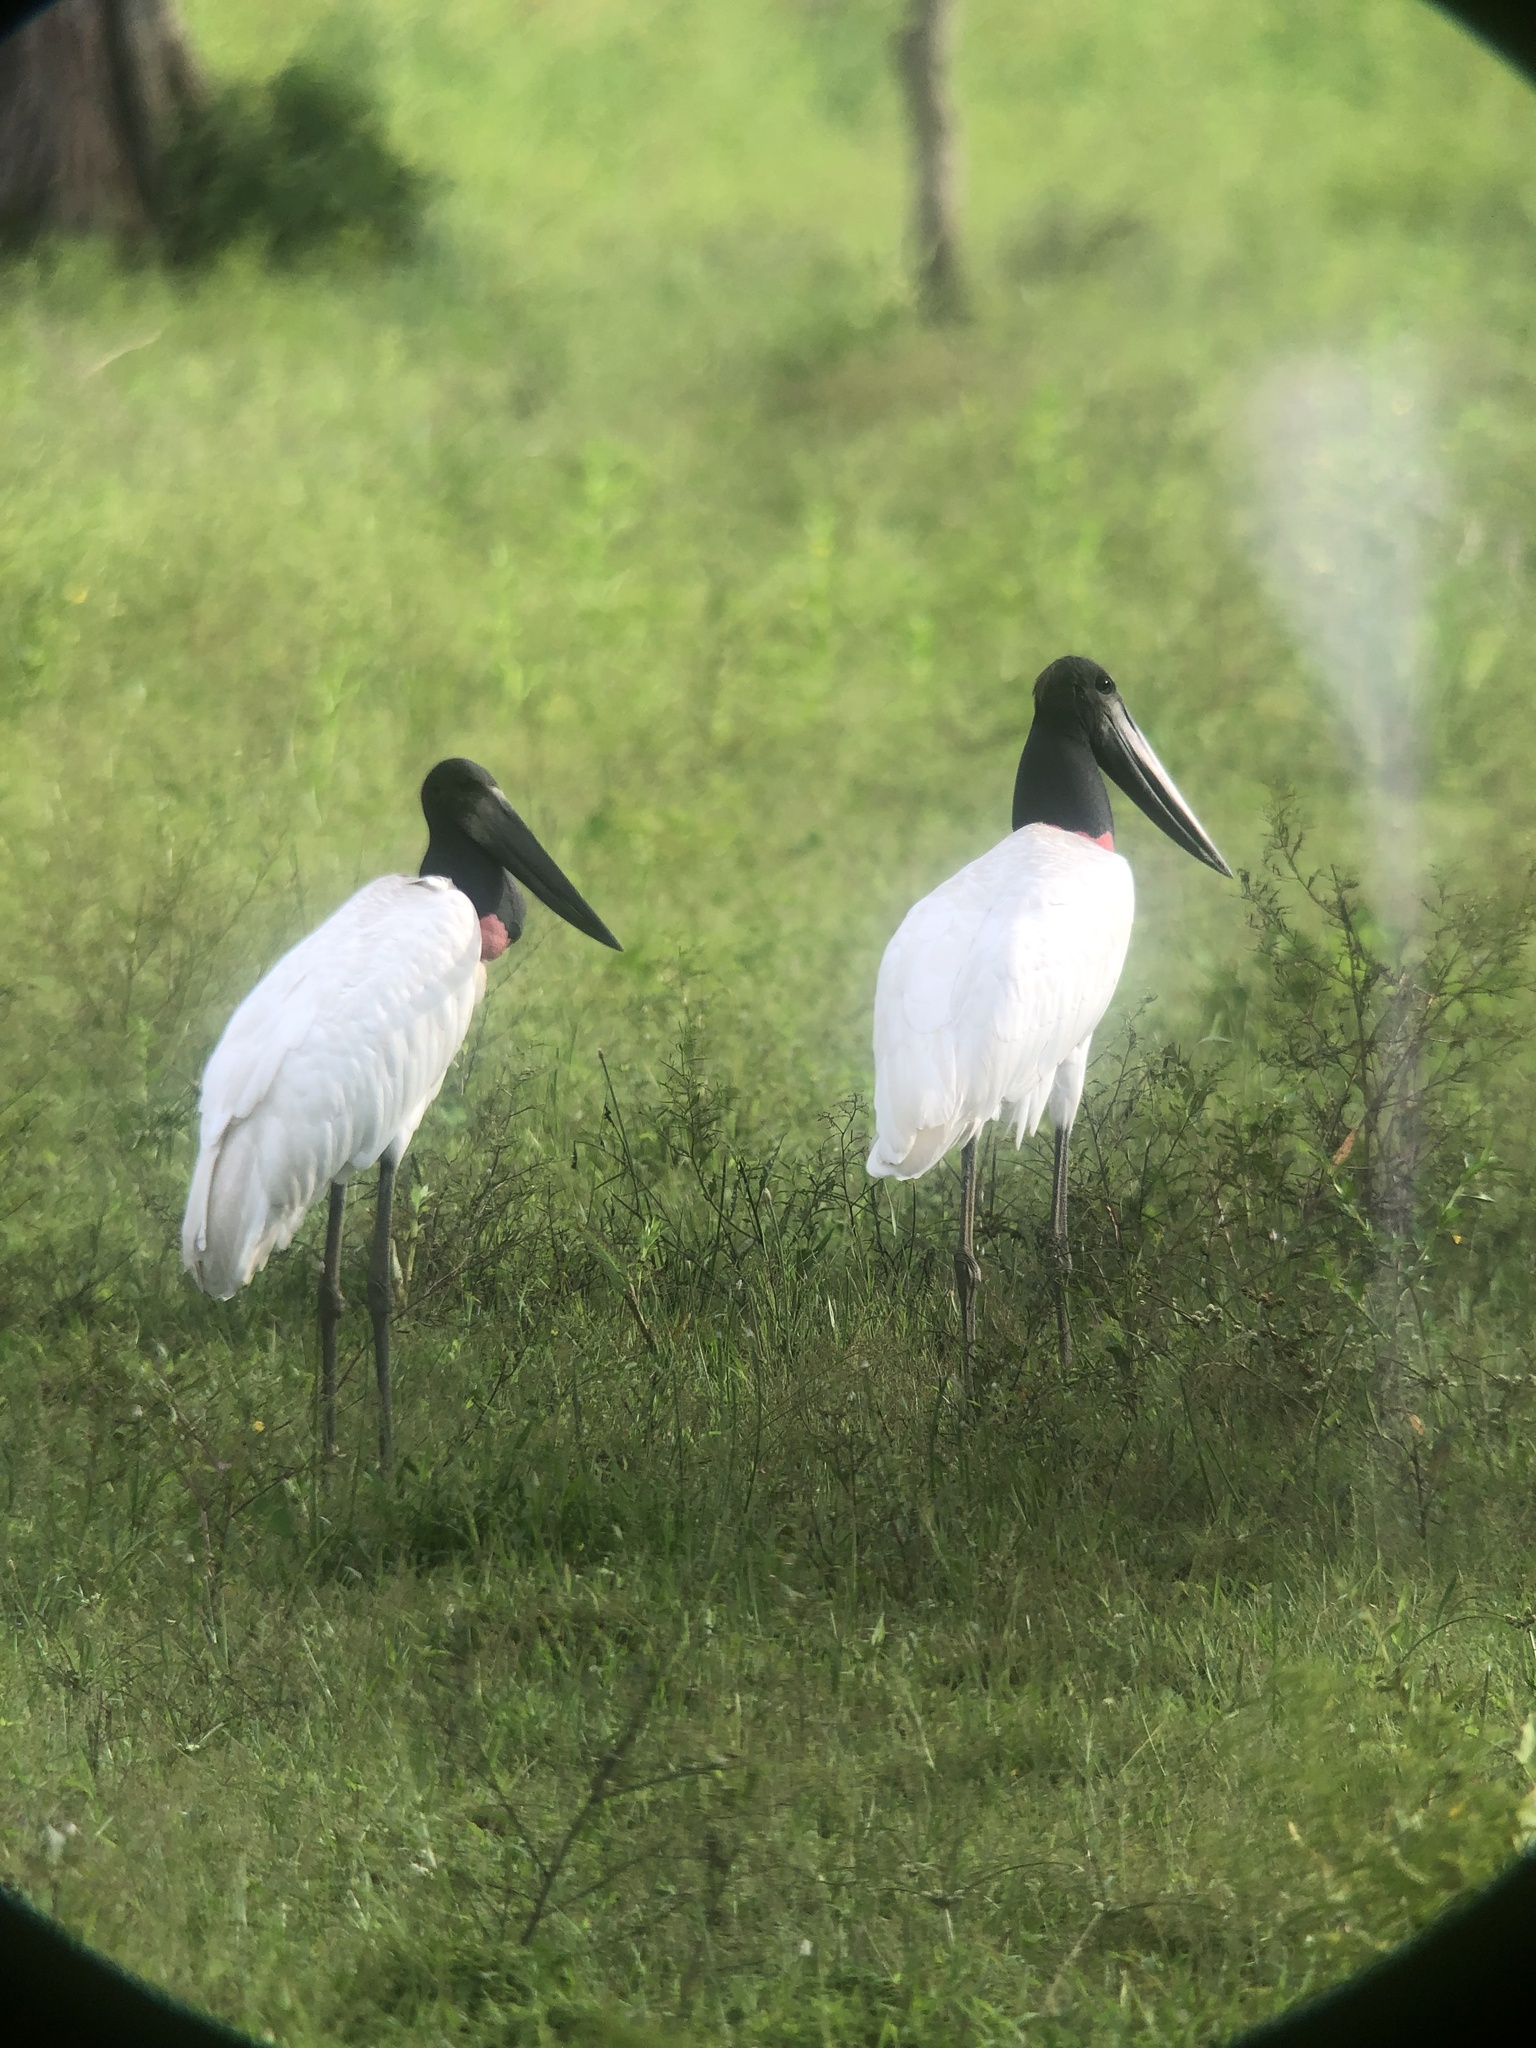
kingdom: Animalia
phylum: Chordata
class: Aves
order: Ciconiiformes
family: Ciconiidae
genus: Jabiru
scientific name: Jabiru mycteria
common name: Jabiru
